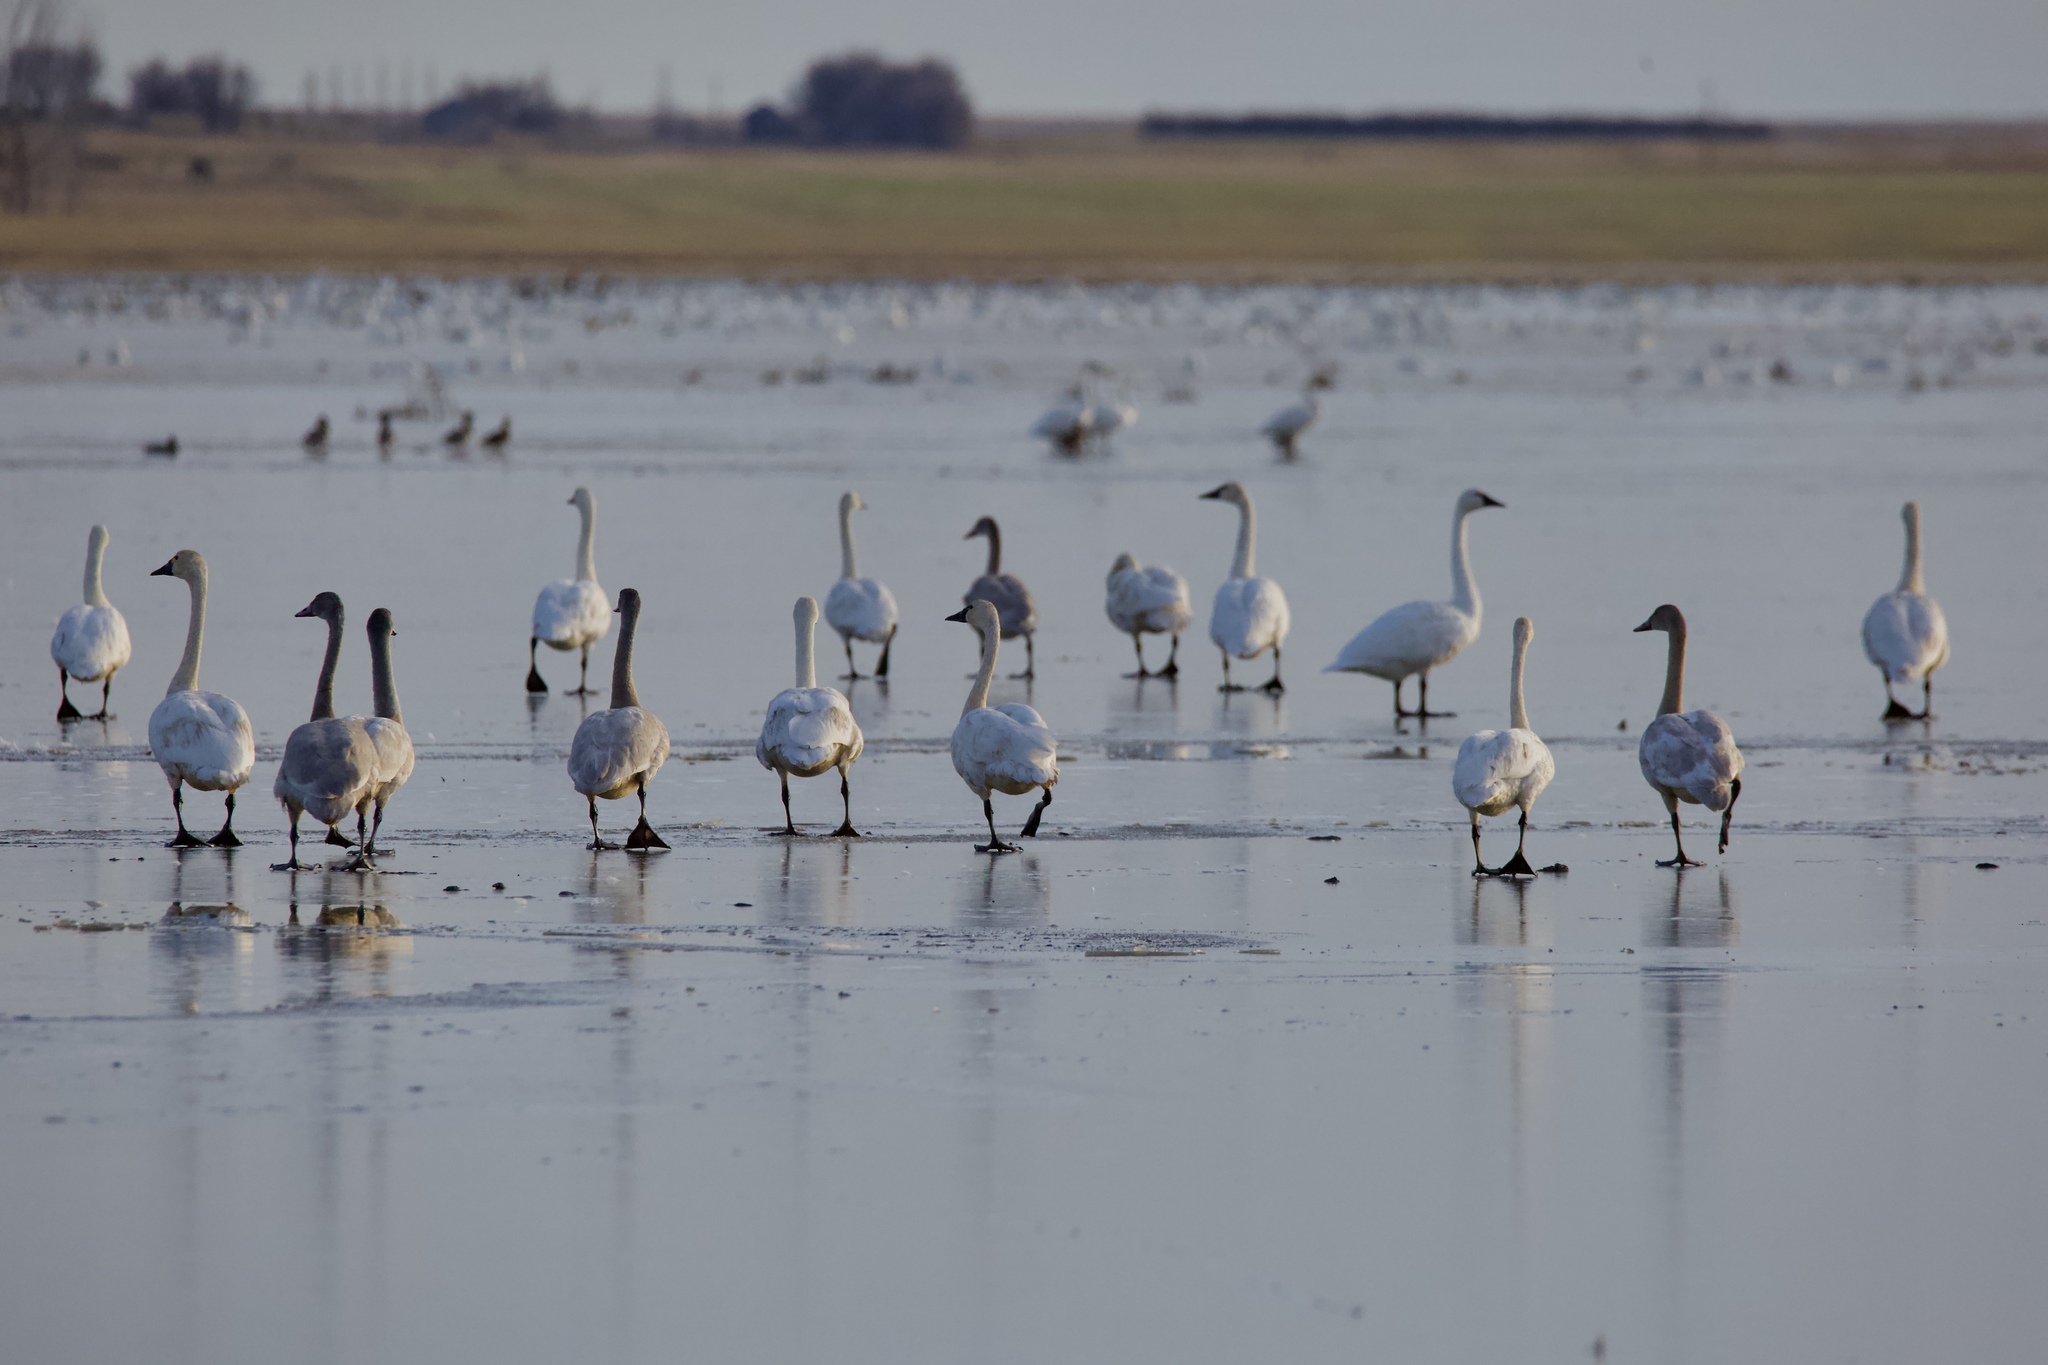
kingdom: Animalia
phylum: Chordata
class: Aves
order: Anseriformes
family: Anatidae
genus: Cygnus
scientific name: Cygnus columbianus
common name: Tundra swan
